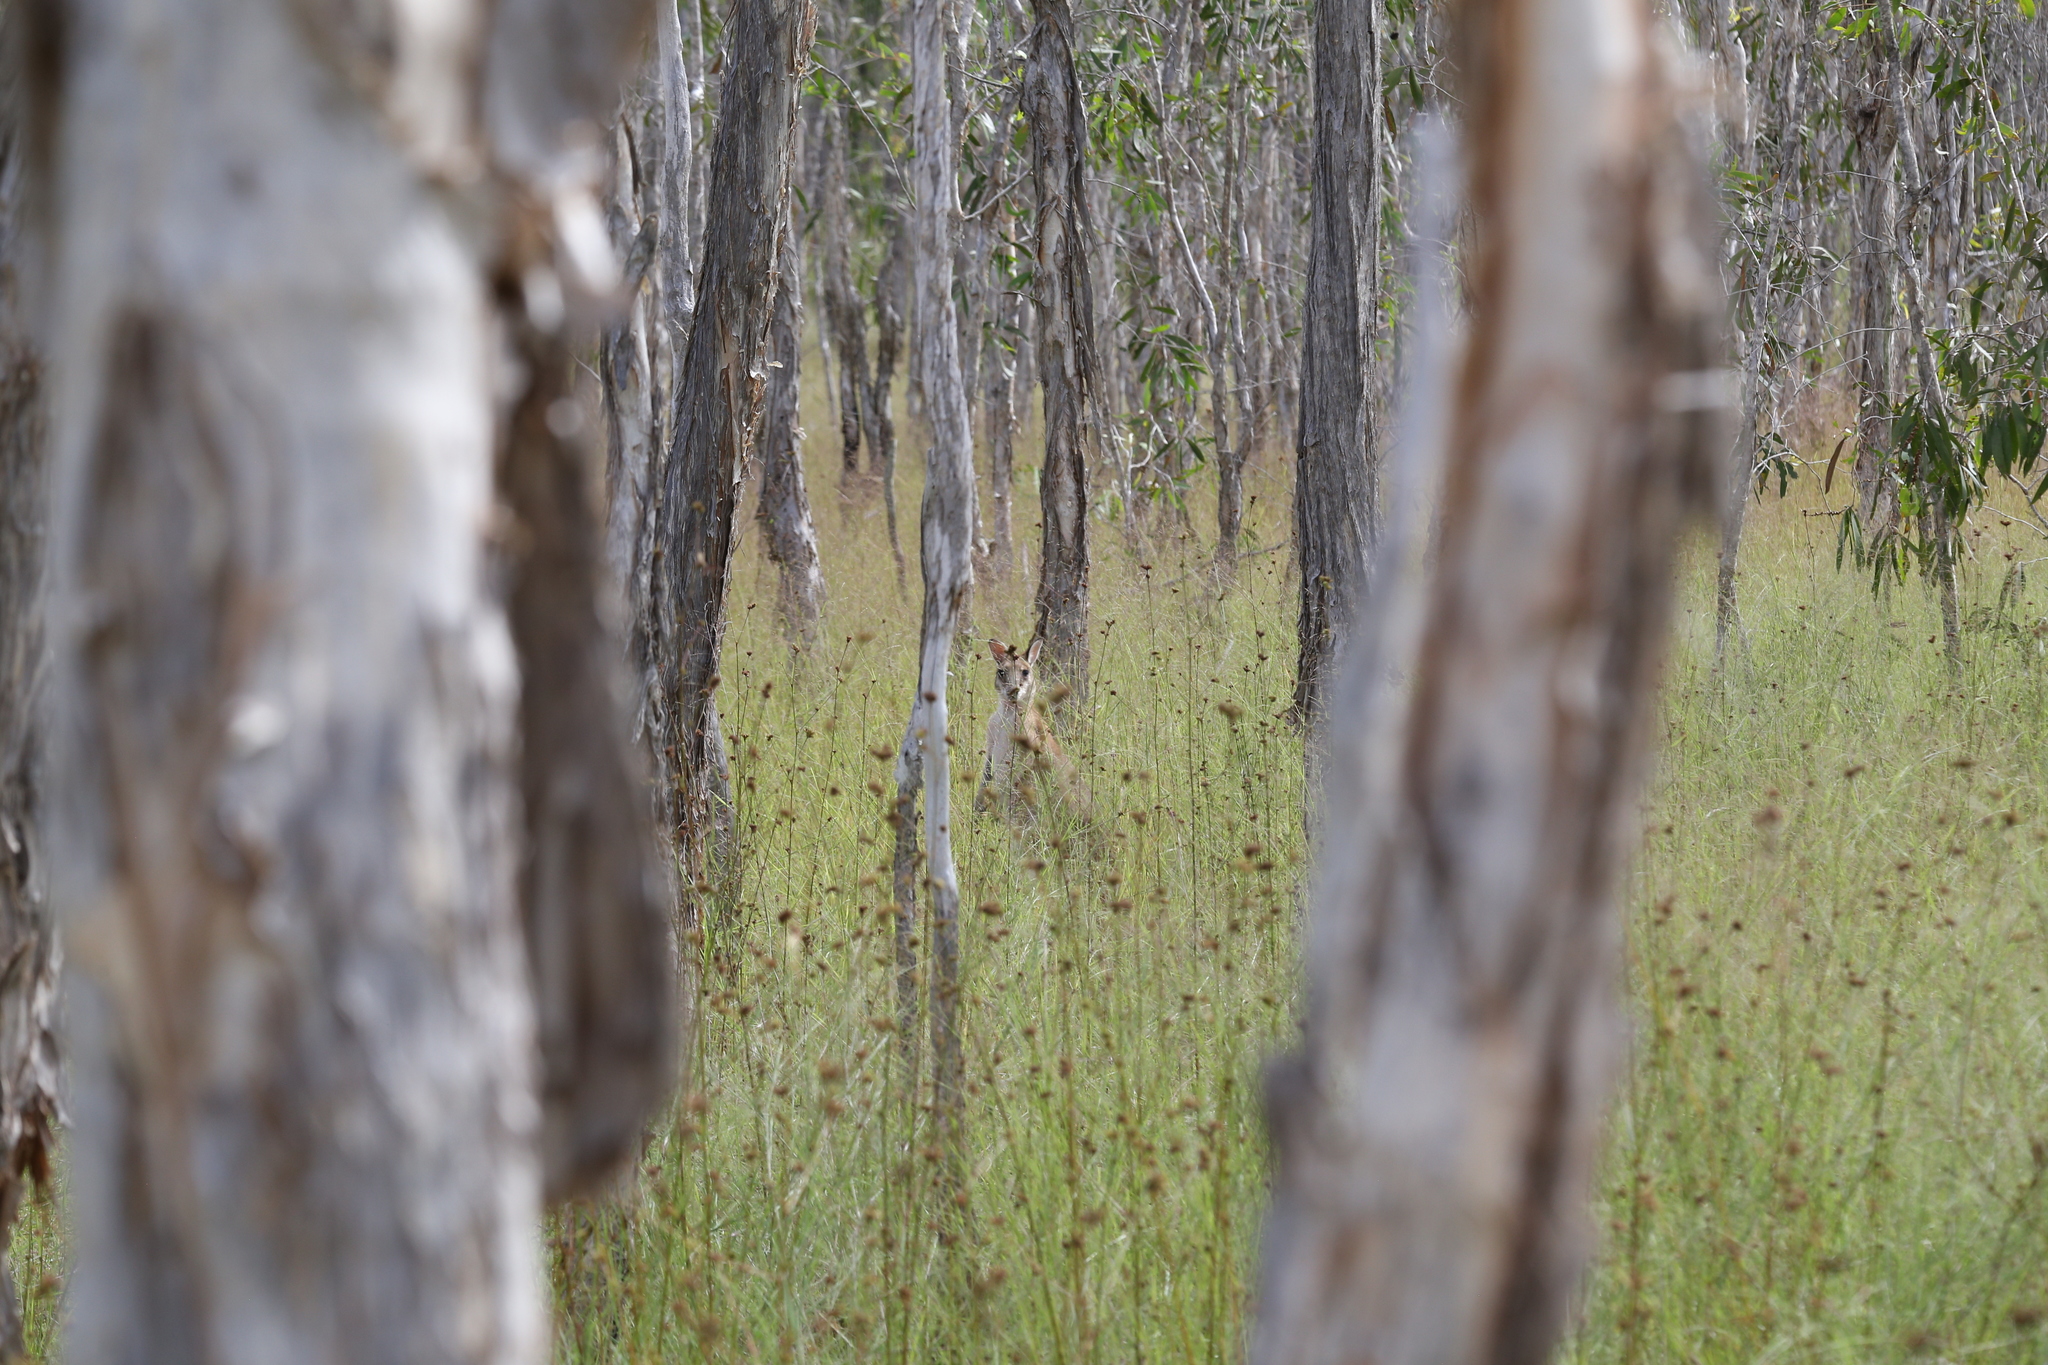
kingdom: Animalia
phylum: Chordata
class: Mammalia
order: Diprotodontia
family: Macropodidae
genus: Macropus
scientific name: Macropus agilis
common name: Agile wallaby
